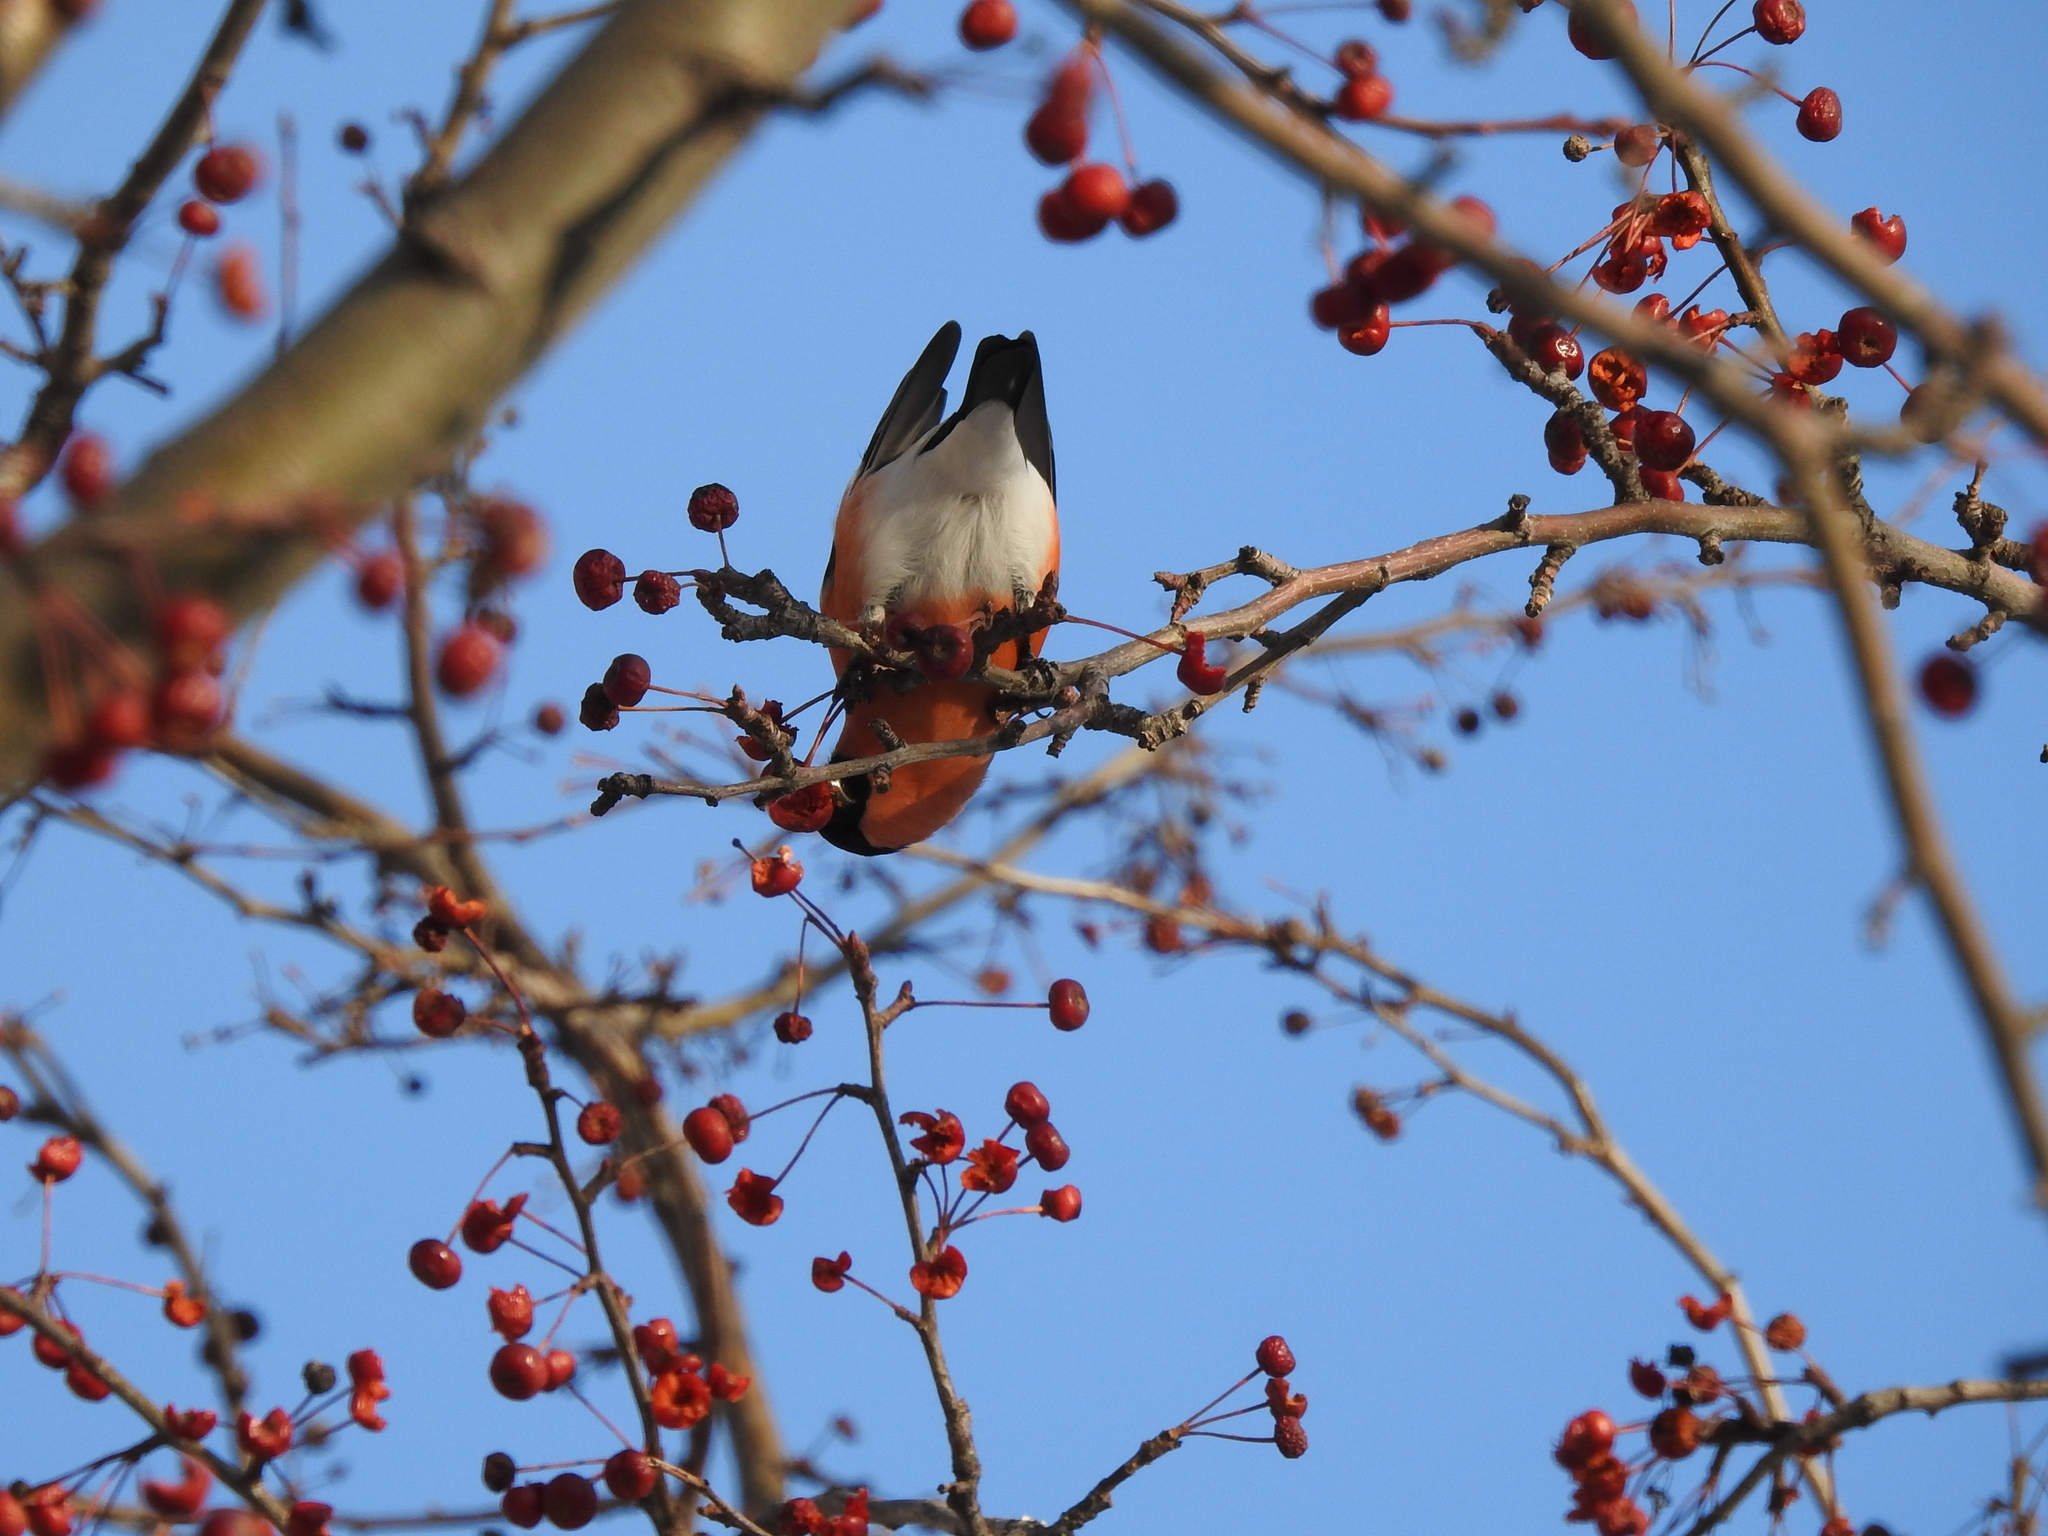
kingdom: Animalia
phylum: Chordata
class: Aves
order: Passeriformes
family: Fringillidae
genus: Pyrrhula
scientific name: Pyrrhula pyrrhula
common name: Eurasian bullfinch
